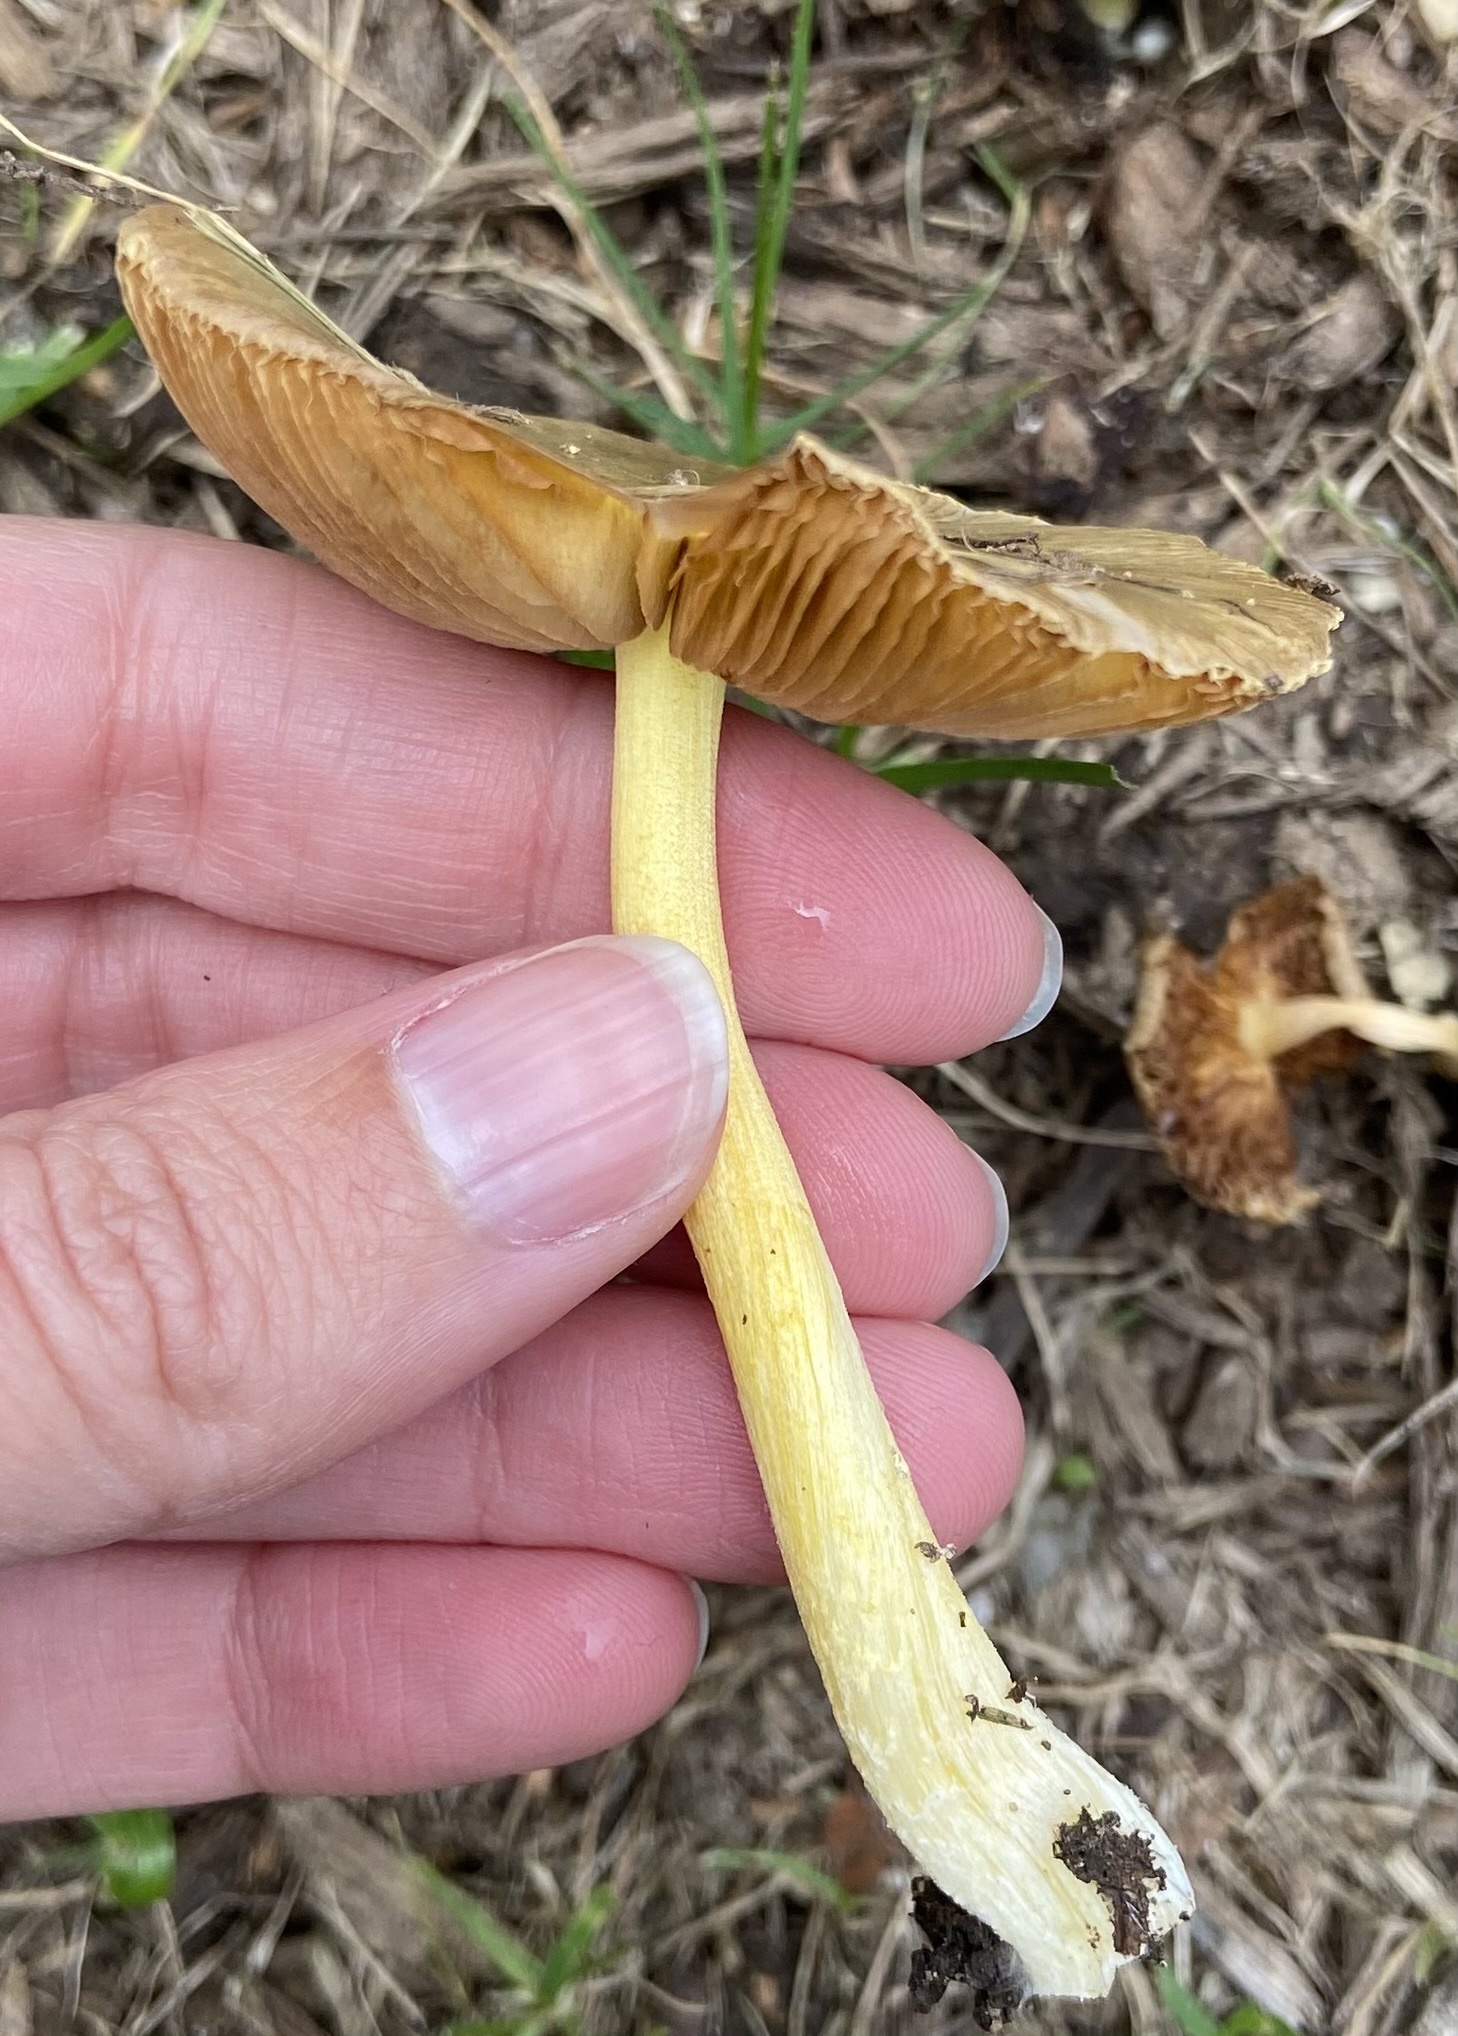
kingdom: Fungi
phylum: Basidiomycota
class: Agaricomycetes
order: Agaricales
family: Bolbitiaceae
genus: Bolbitius
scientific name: Bolbitius titubans
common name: Yellow fieldcap
